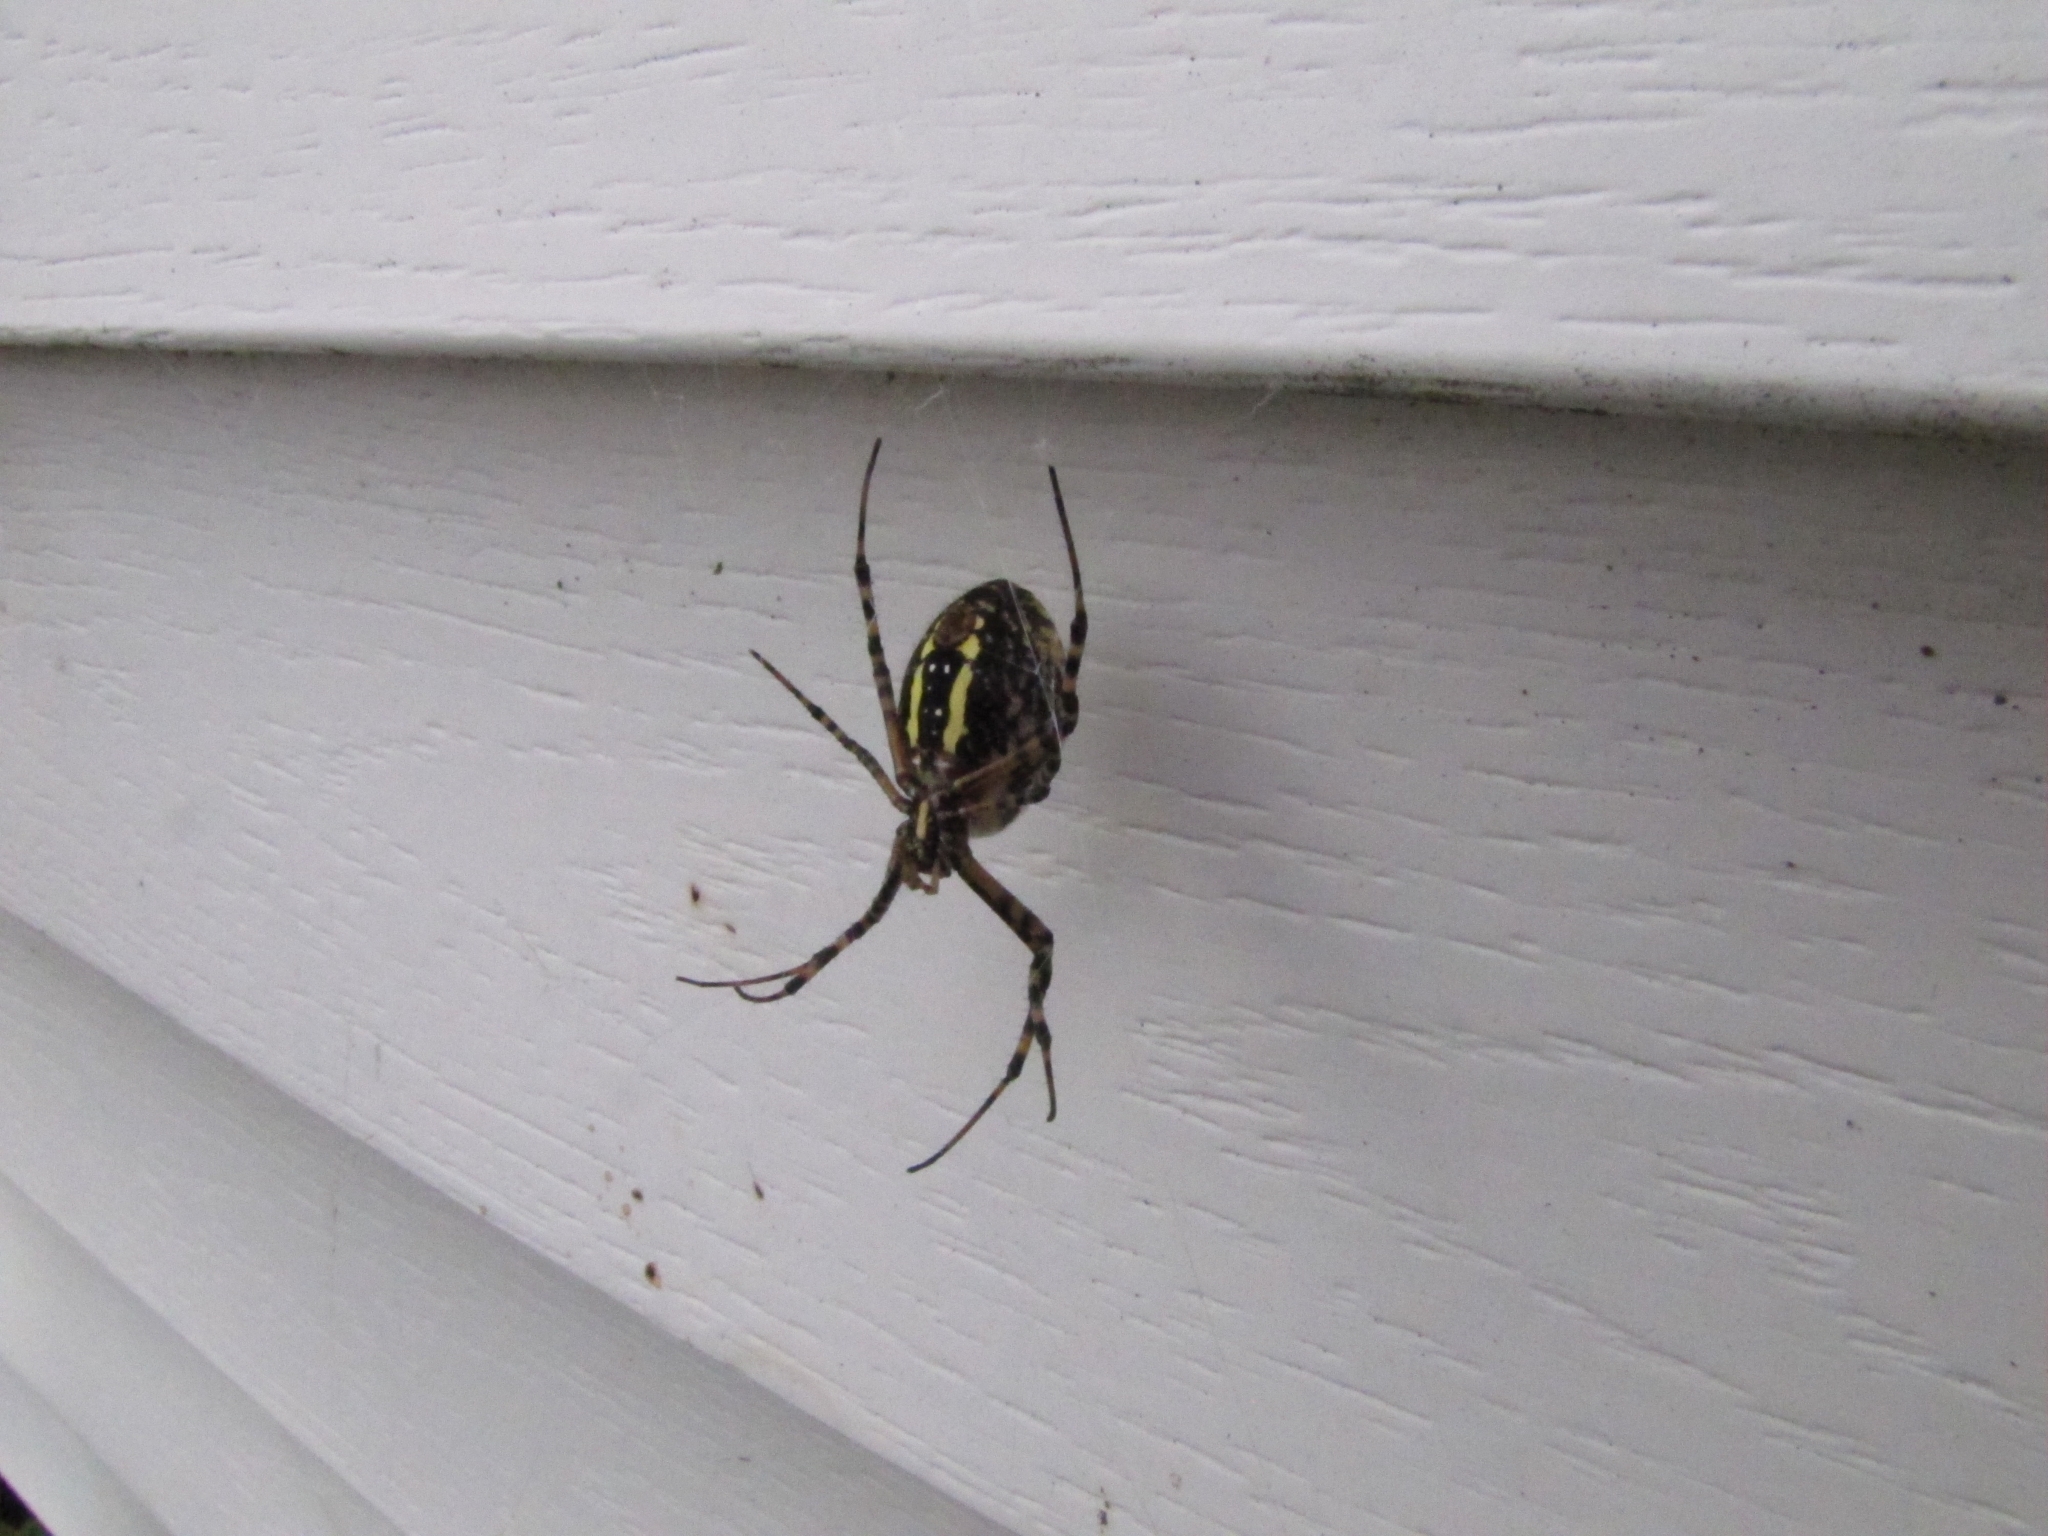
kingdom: Animalia
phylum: Arthropoda
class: Arachnida
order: Araneae
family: Araneidae
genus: Argiope
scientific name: Argiope trifasciata
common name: Banded garden spider
